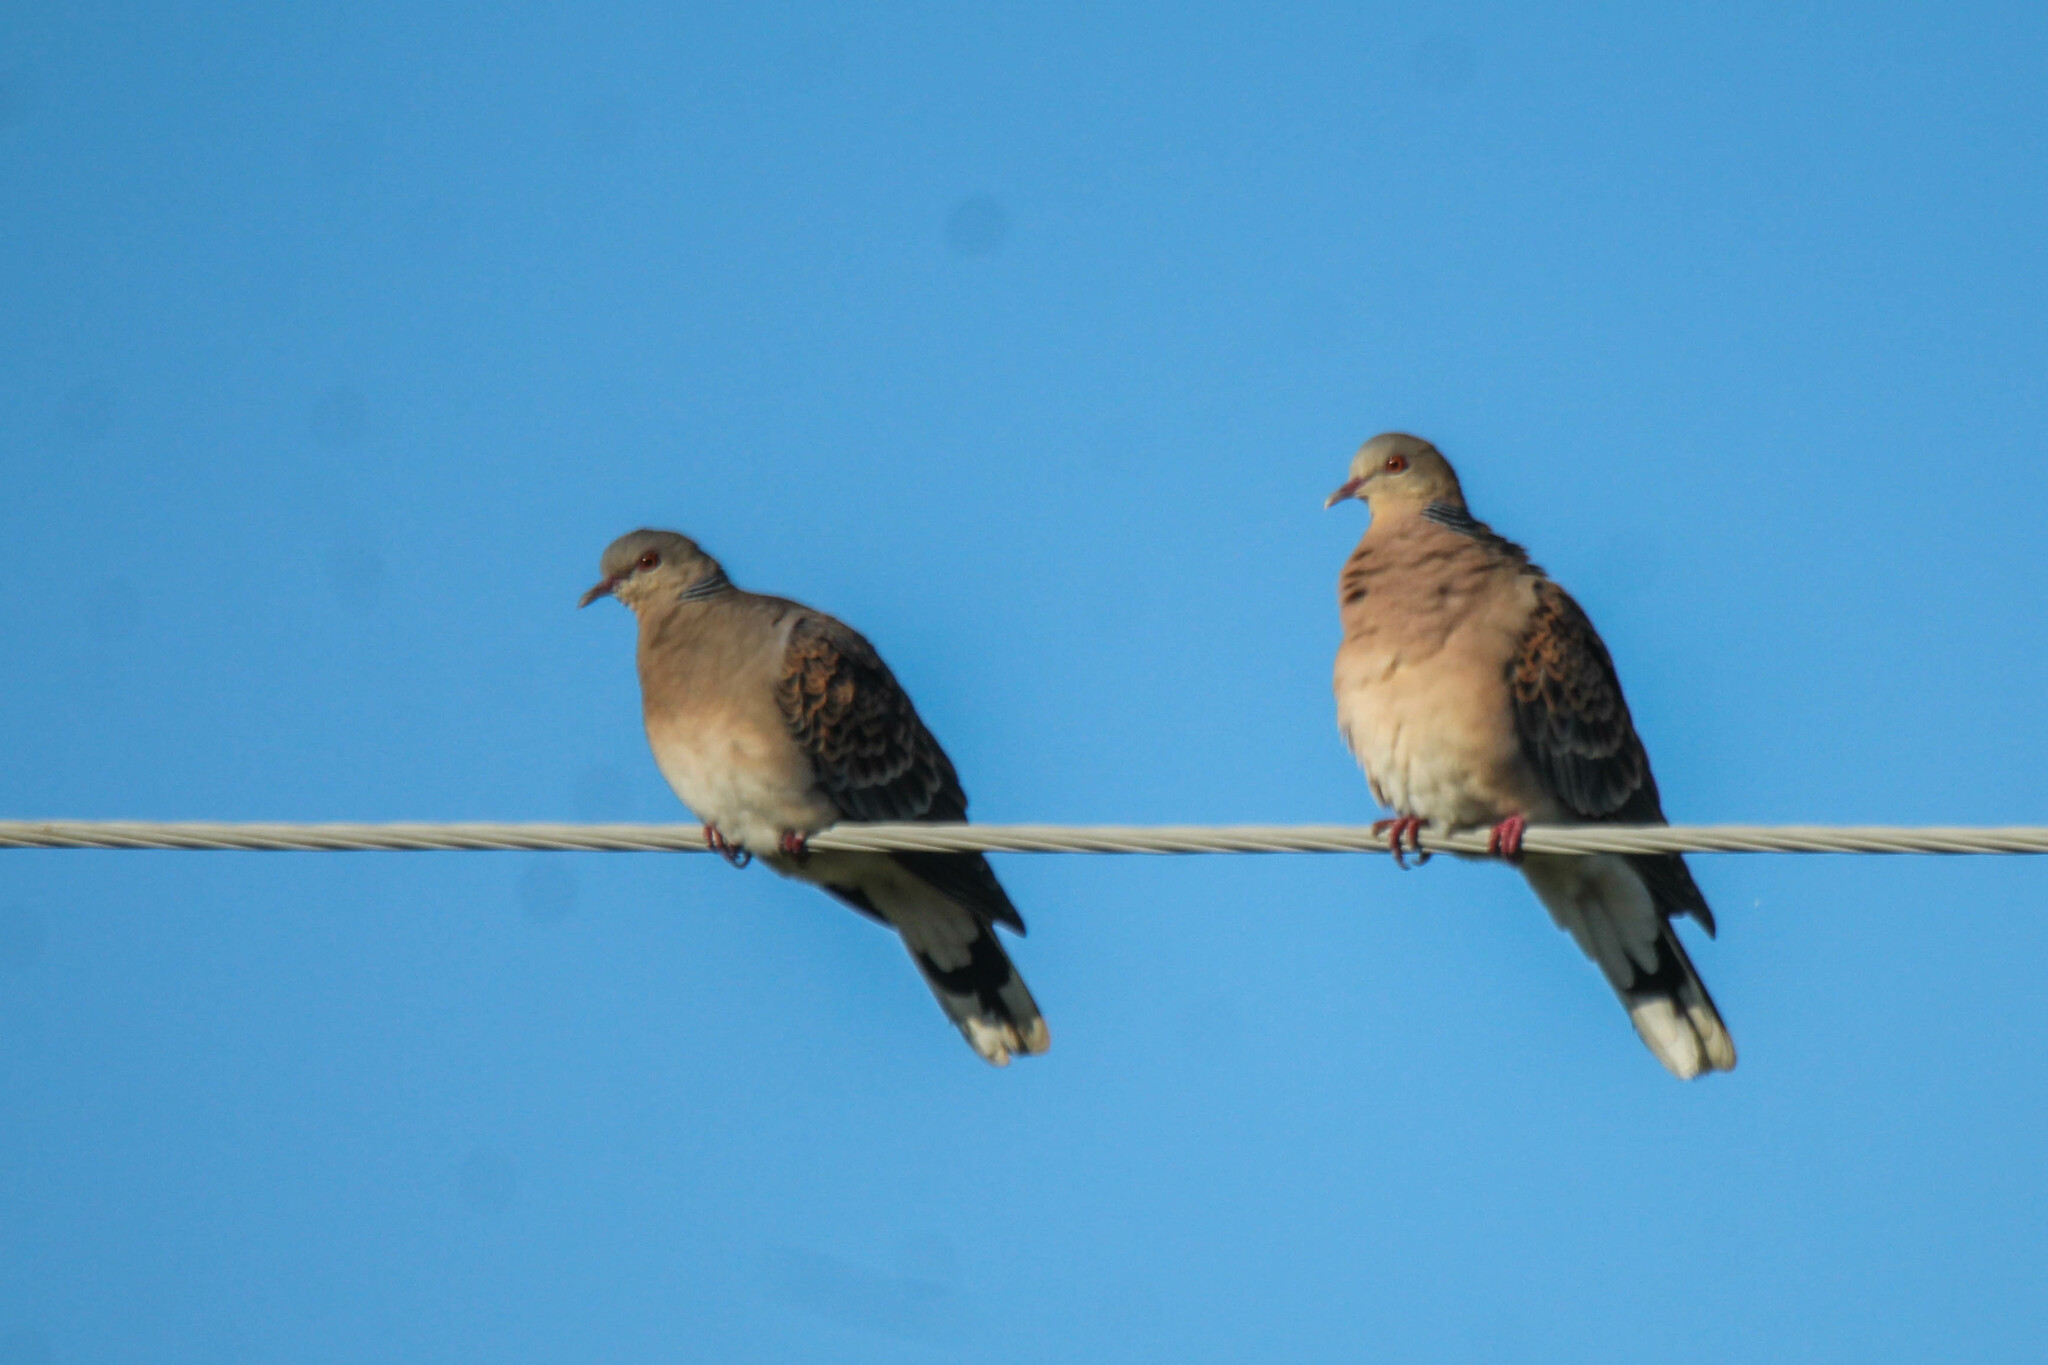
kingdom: Animalia
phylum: Chordata
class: Aves
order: Columbiformes
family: Columbidae
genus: Streptopelia
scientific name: Streptopelia orientalis
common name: Oriental turtle dove
